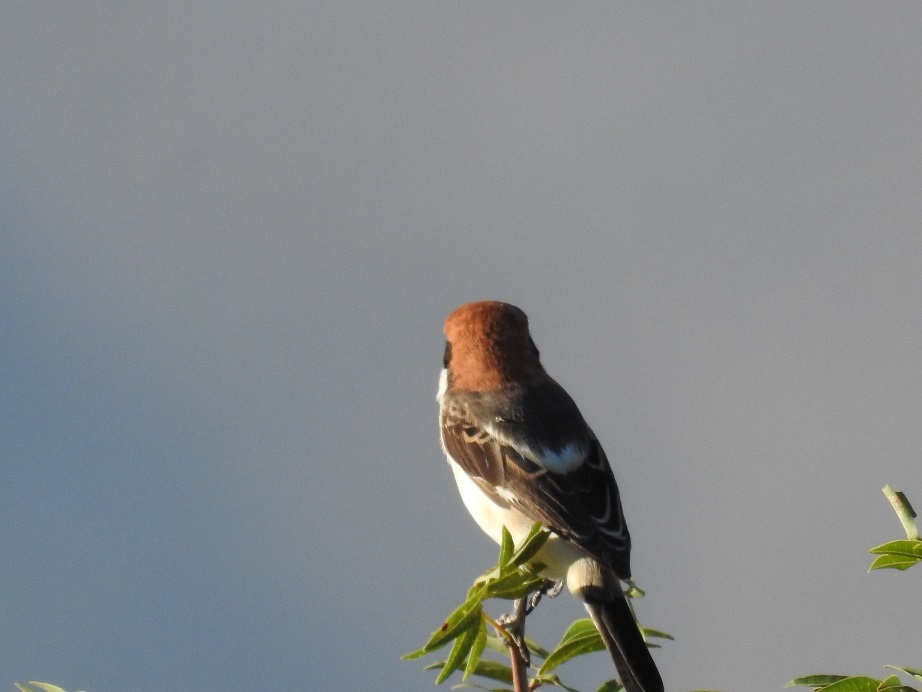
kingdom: Animalia
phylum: Chordata
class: Aves
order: Passeriformes
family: Laniidae
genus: Lanius
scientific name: Lanius senator
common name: Woodchat shrike
